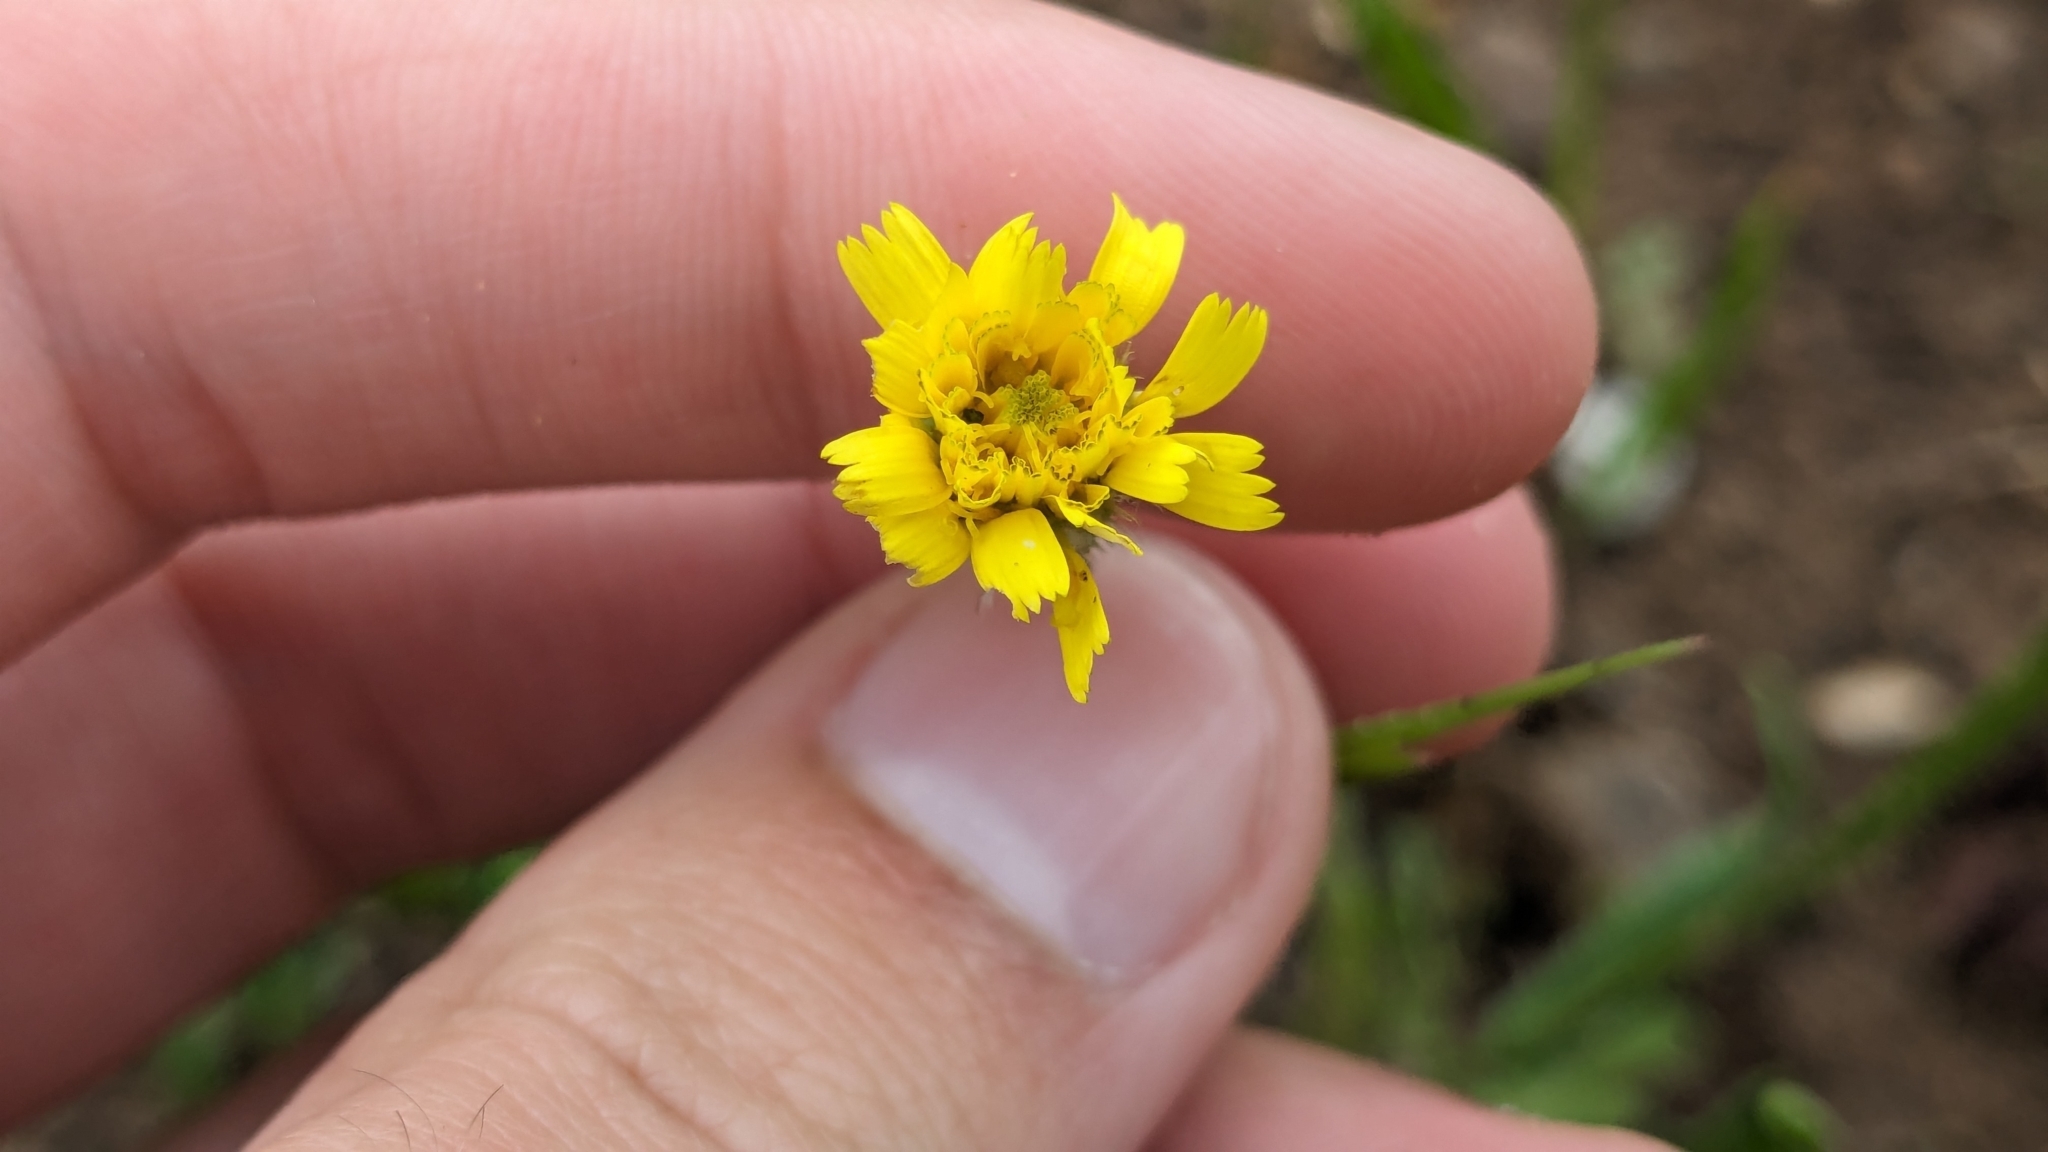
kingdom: Plantae
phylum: Tracheophyta
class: Magnoliopsida
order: Asterales
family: Asteraceae
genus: Hedypnois
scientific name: Hedypnois rhagadioloides
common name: Cretan weed
